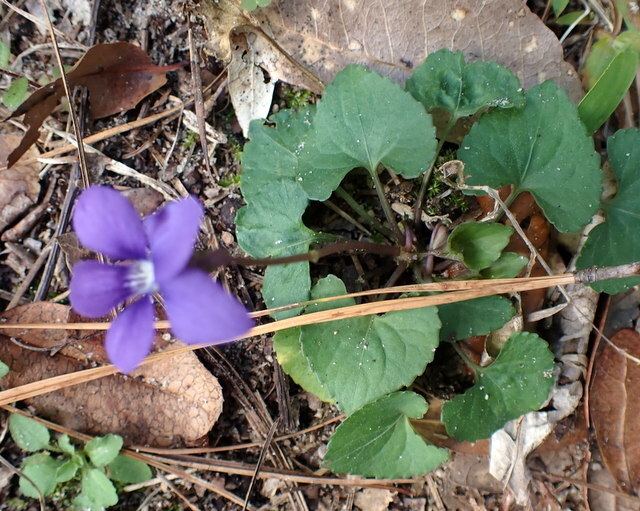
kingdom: Plantae
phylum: Tracheophyta
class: Magnoliopsida
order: Malpighiales
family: Violaceae
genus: Viola
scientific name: Viola sororia
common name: Dooryard violet
